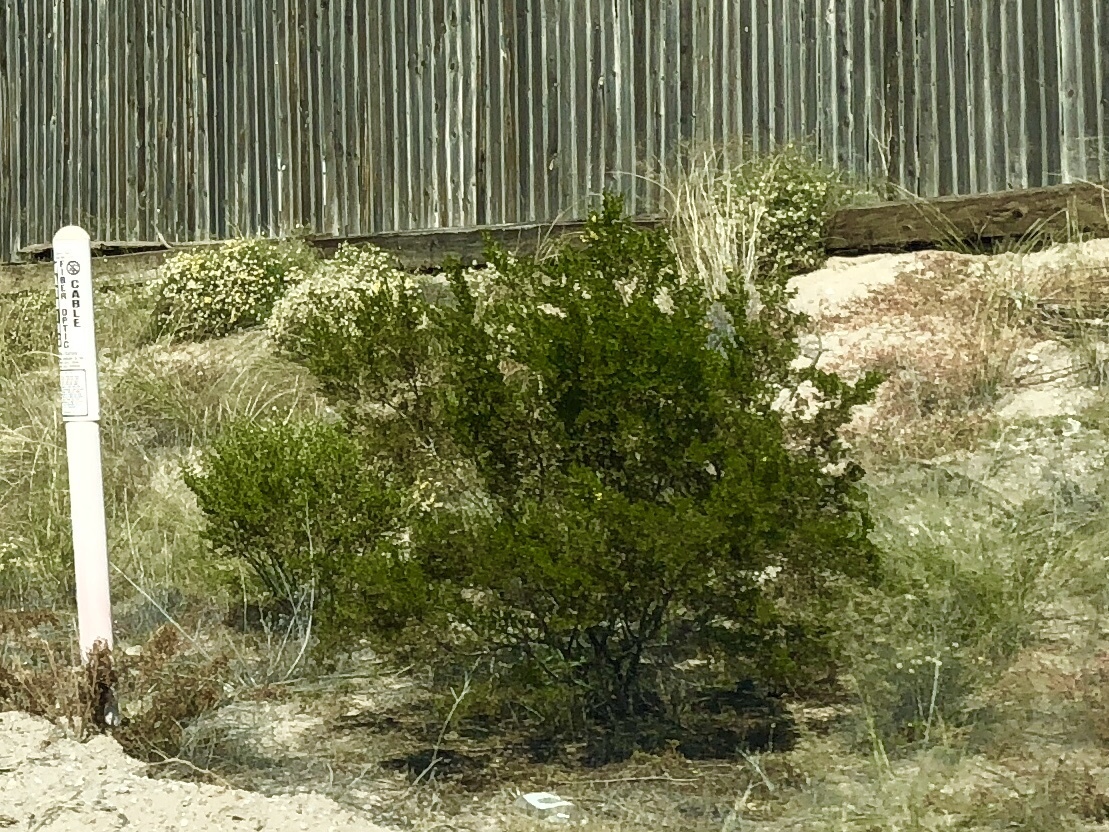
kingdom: Plantae
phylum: Tracheophyta
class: Magnoliopsida
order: Zygophyllales
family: Zygophyllaceae
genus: Larrea
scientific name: Larrea tridentata
